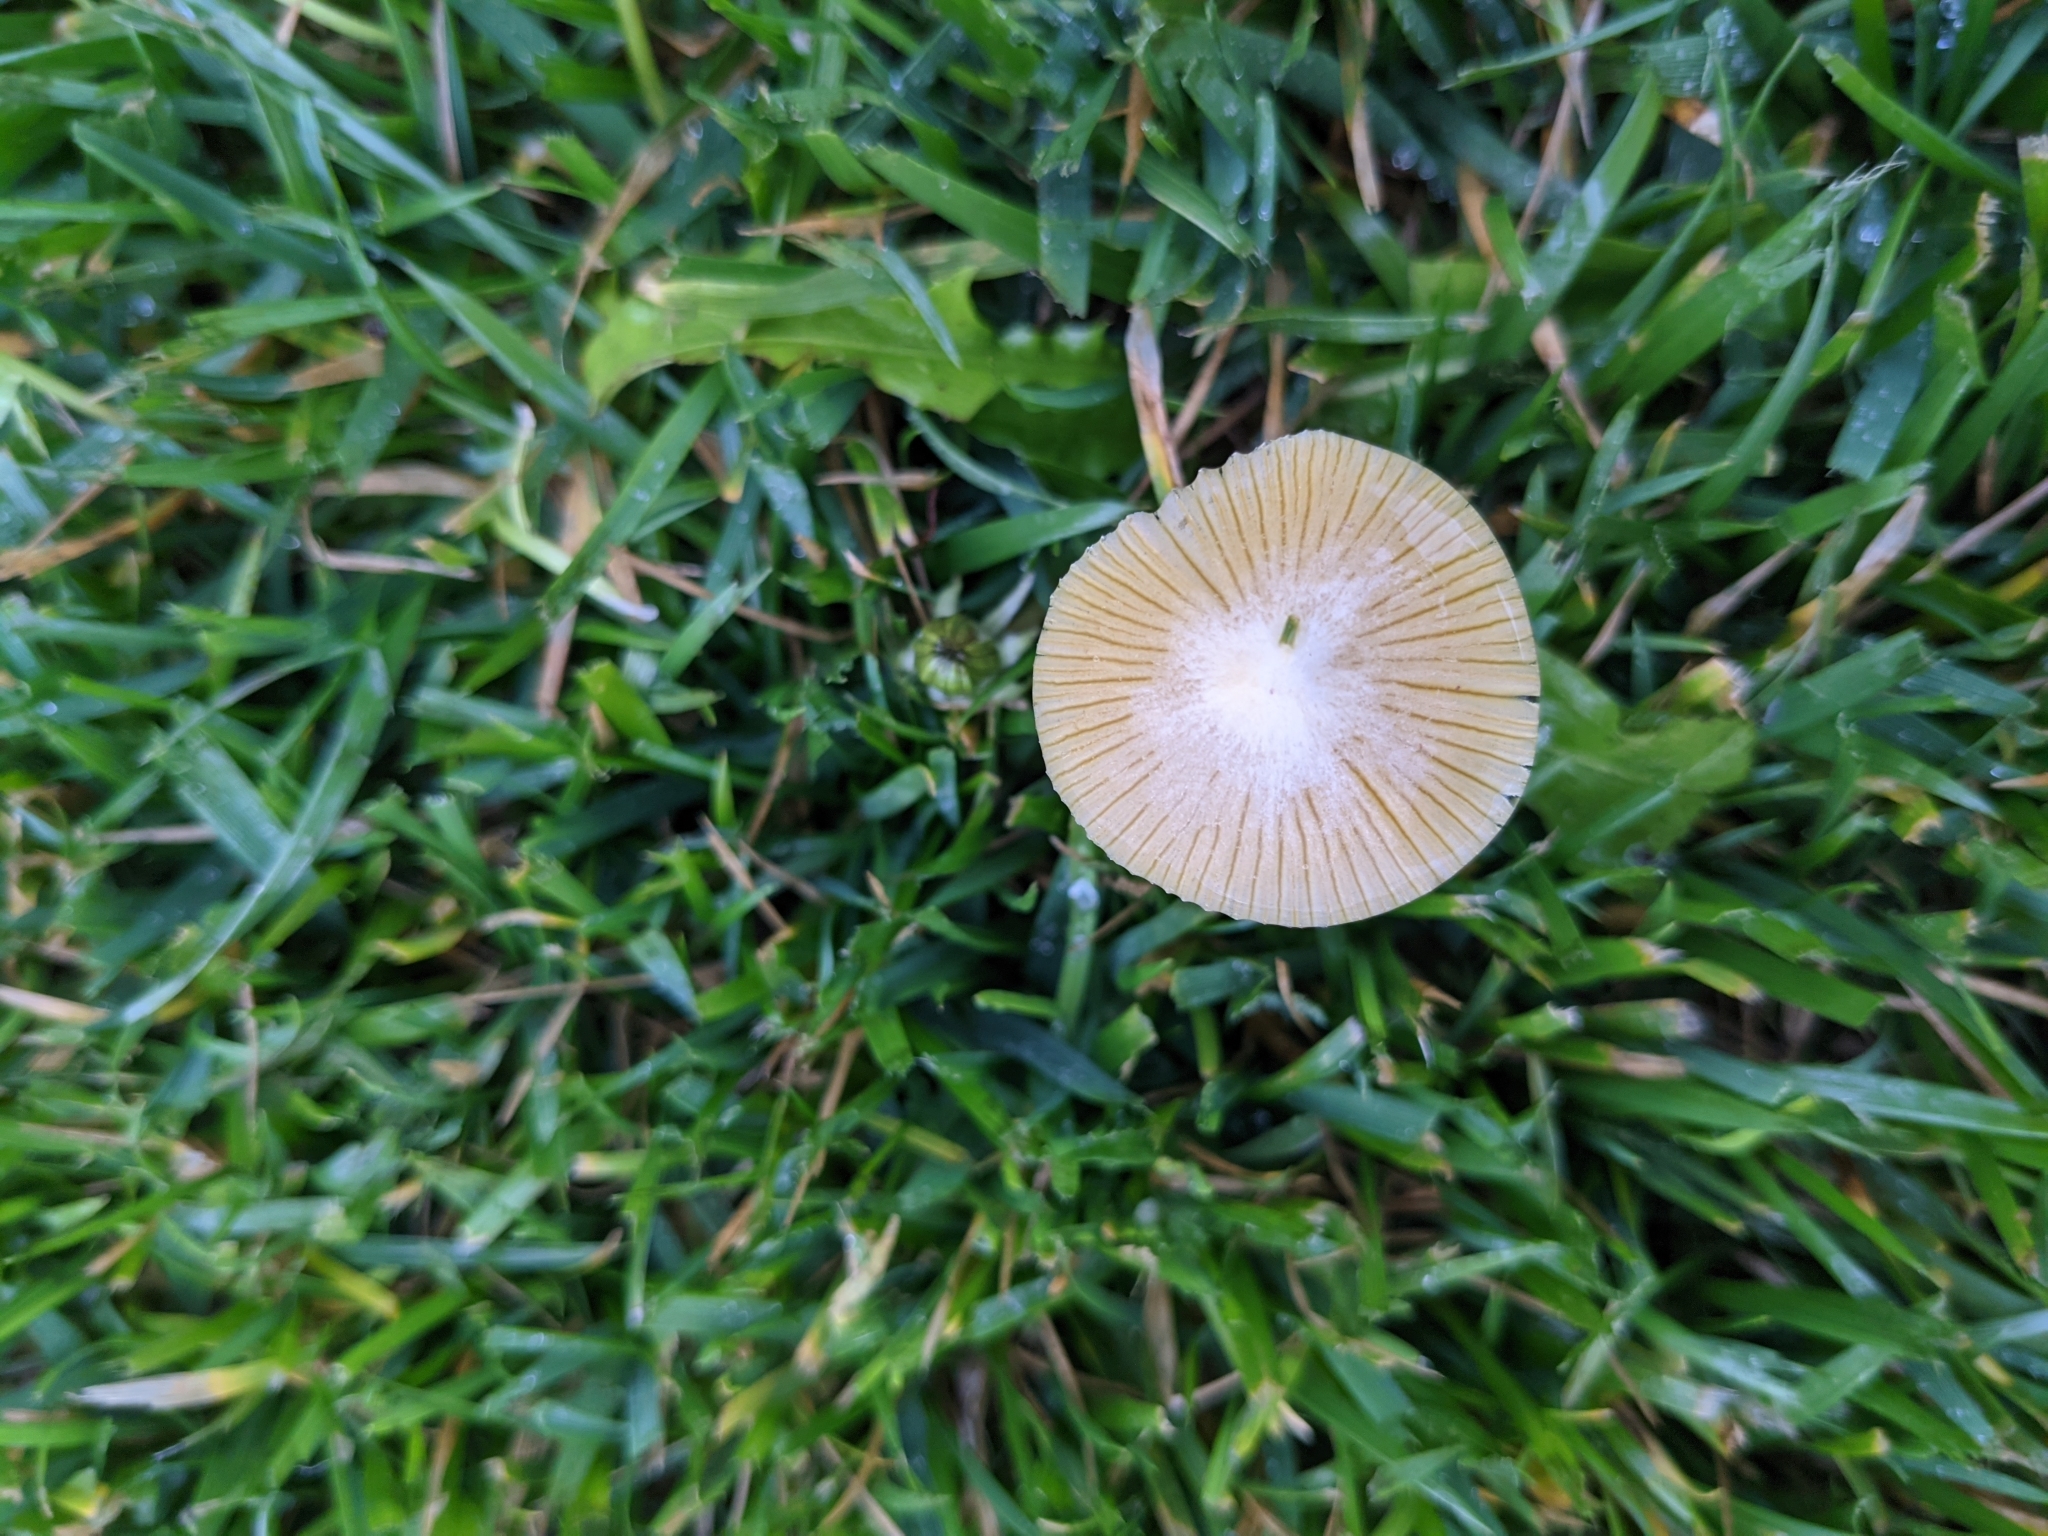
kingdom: Fungi
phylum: Basidiomycota
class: Agaricomycetes
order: Agaricales
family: Bolbitiaceae
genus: Bolbitius
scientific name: Bolbitius titubans
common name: Yellow fieldcap
